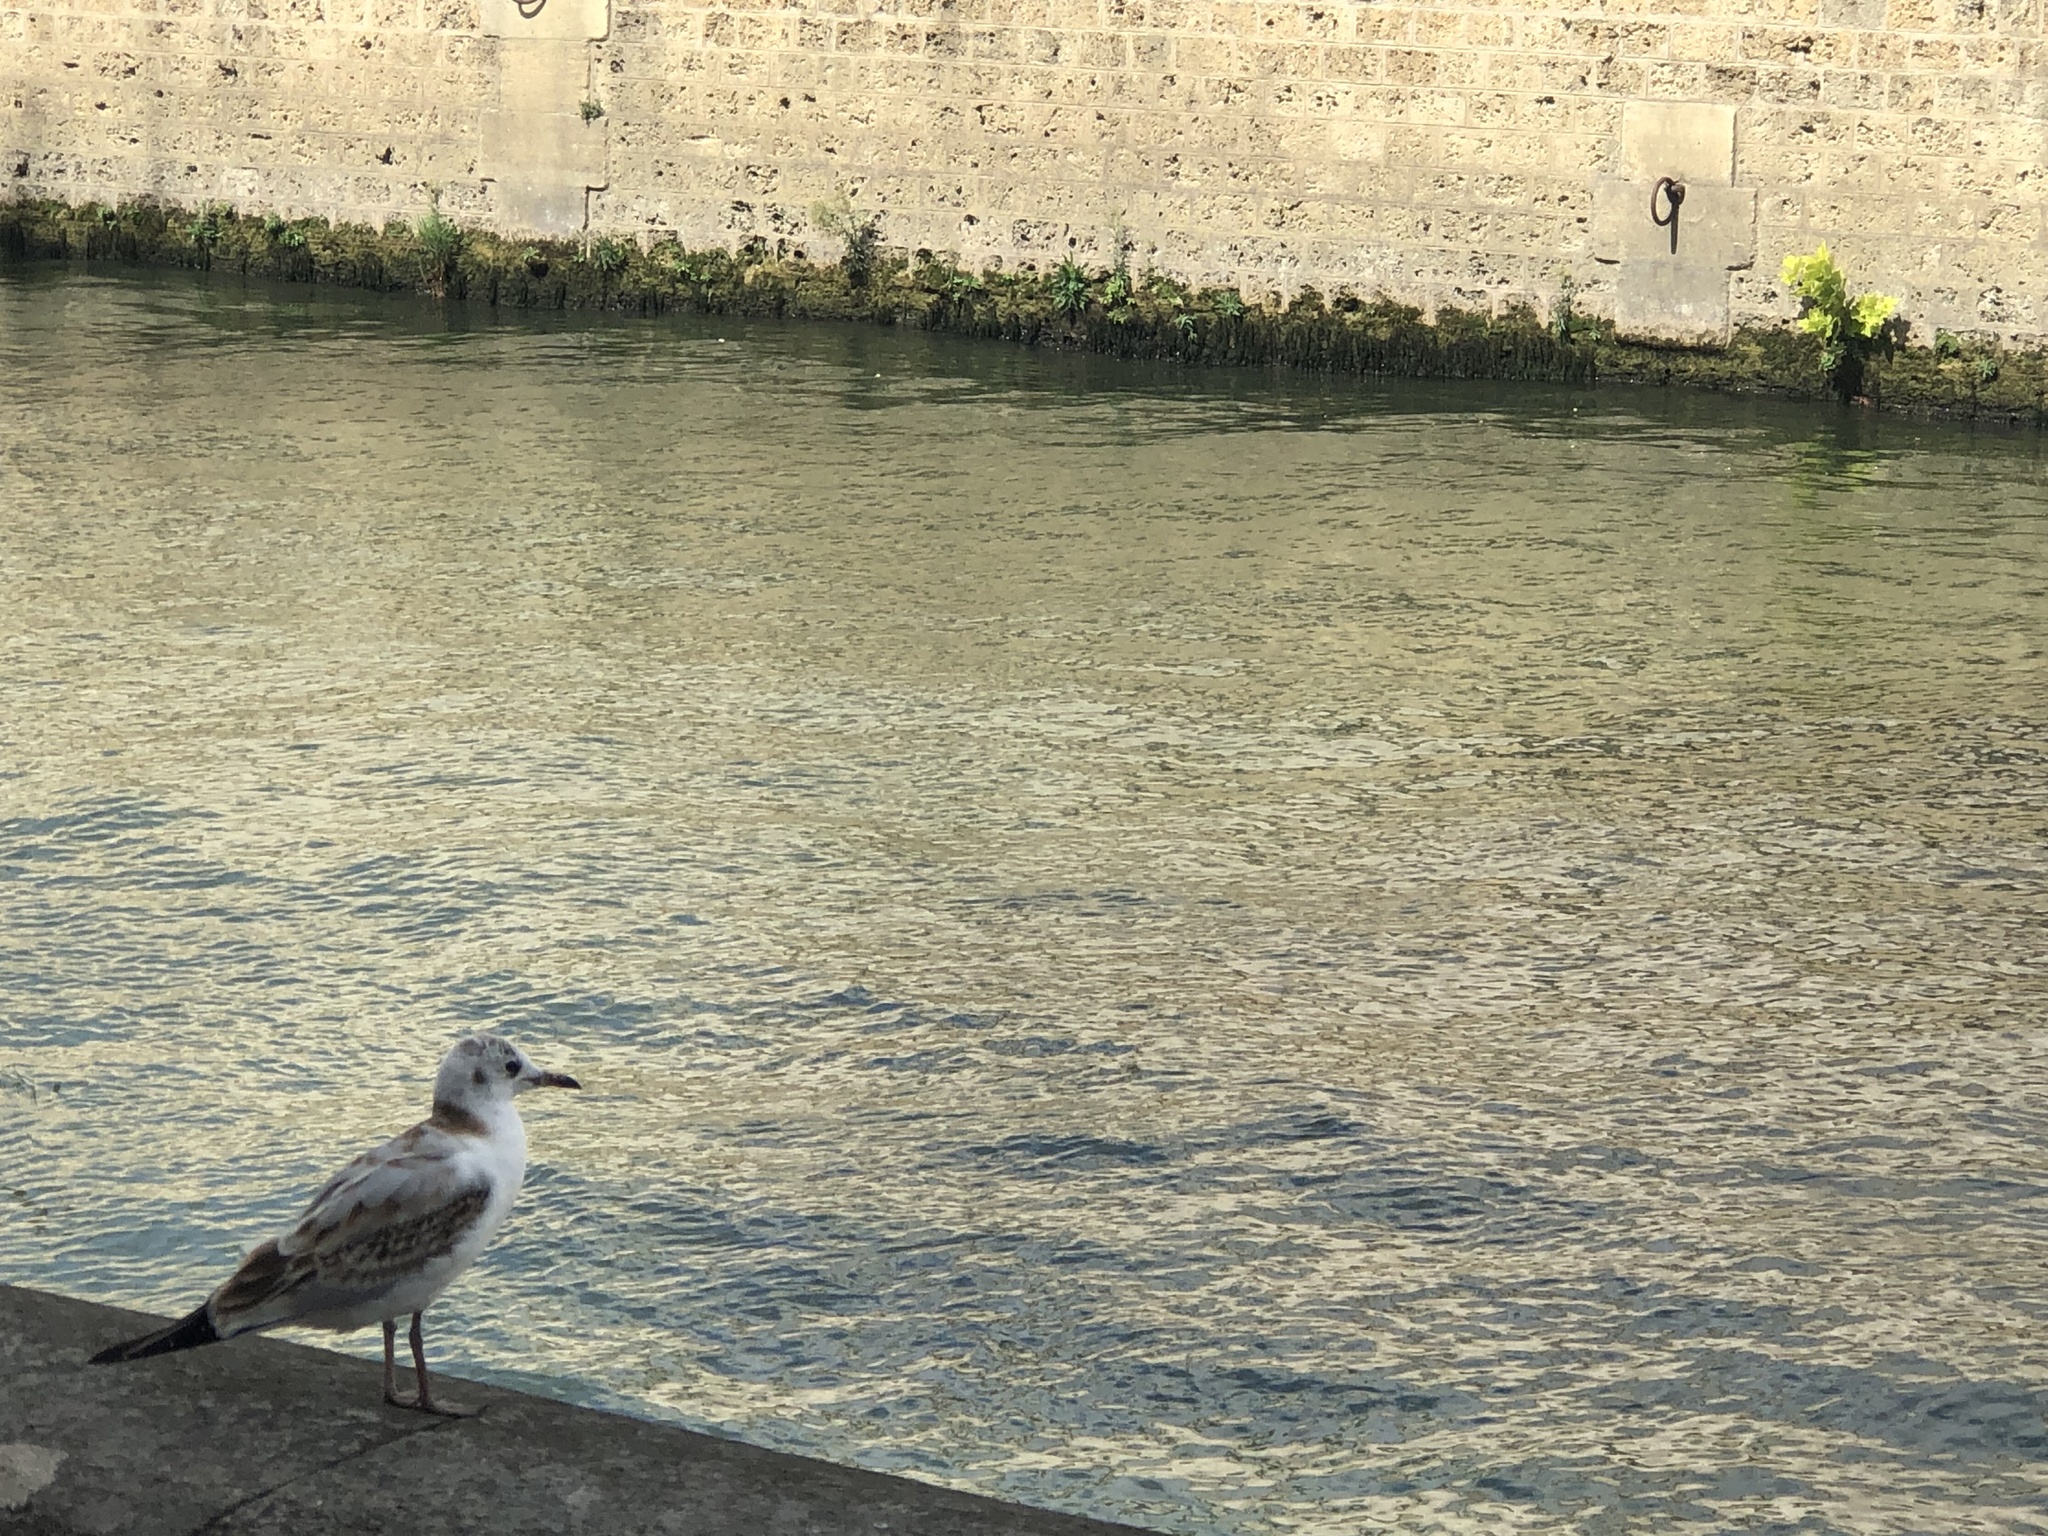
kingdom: Animalia
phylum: Chordata
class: Aves
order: Charadriiformes
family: Laridae
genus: Chroicocephalus
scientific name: Chroicocephalus ridibundus
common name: Black-headed gull
